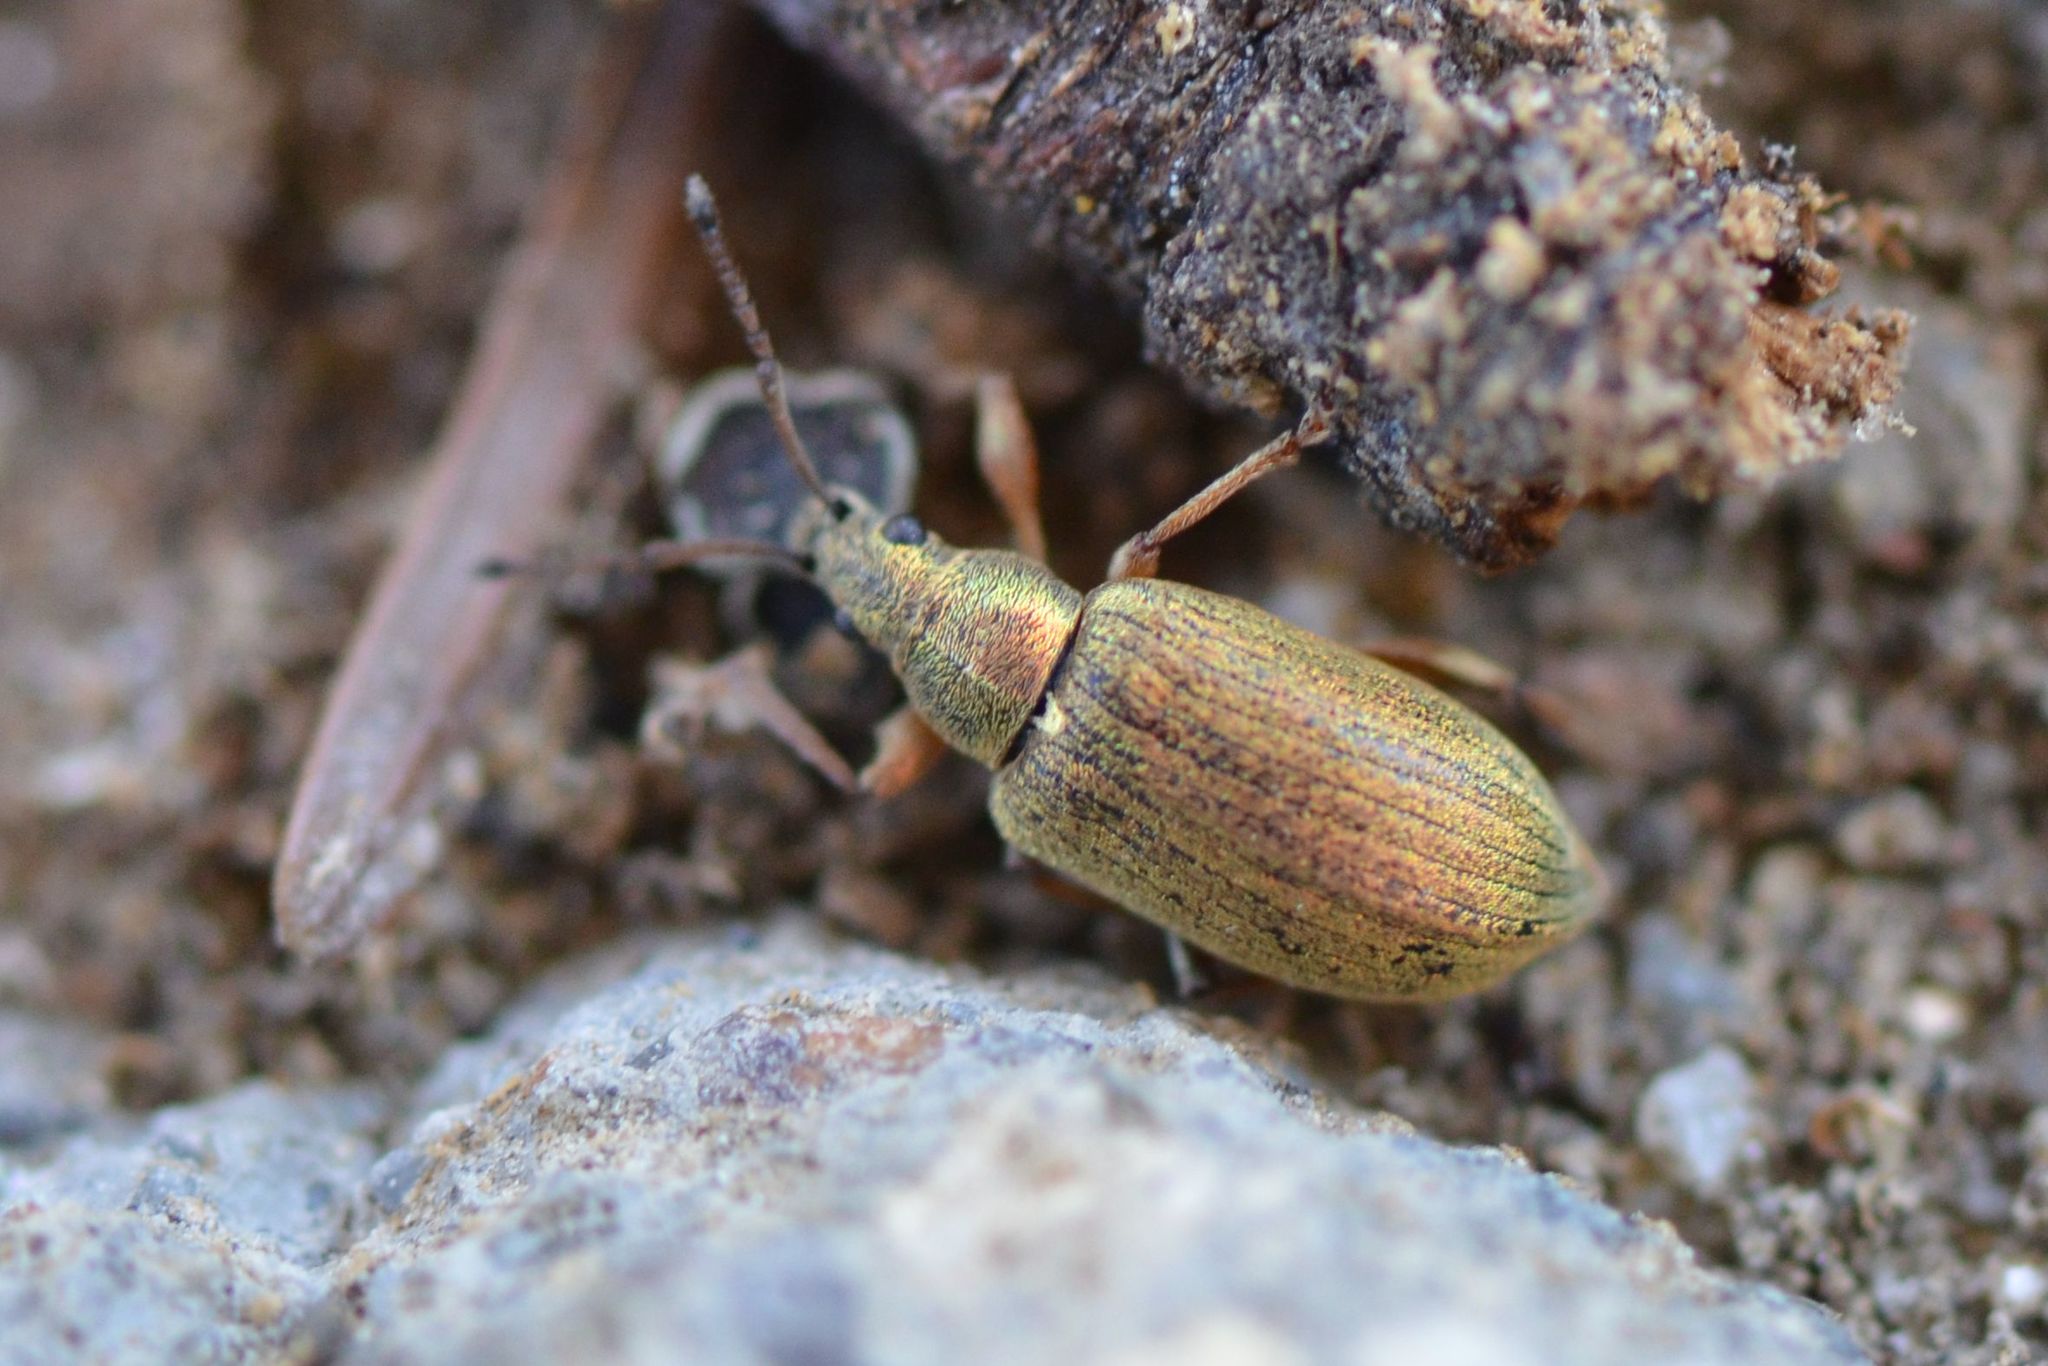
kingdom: Animalia
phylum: Arthropoda
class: Insecta
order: Coleoptera
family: Curculionidae
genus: Phyllobius
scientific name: Phyllobius pyri
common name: Common leaf weevil
